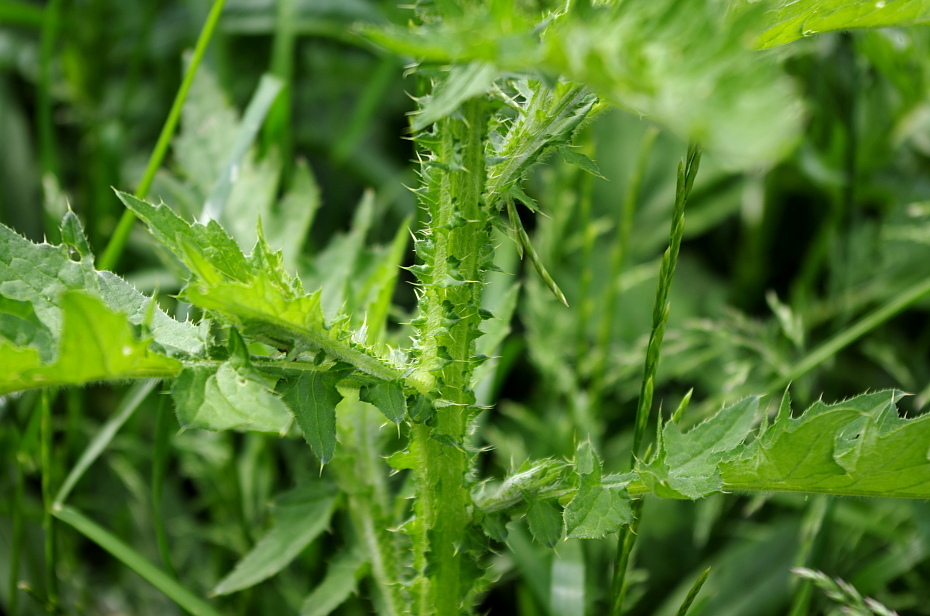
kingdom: Plantae
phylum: Tracheophyta
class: Magnoliopsida
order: Asterales
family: Asteraceae
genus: Carduus
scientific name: Carduus crispus
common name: Welted thistle
